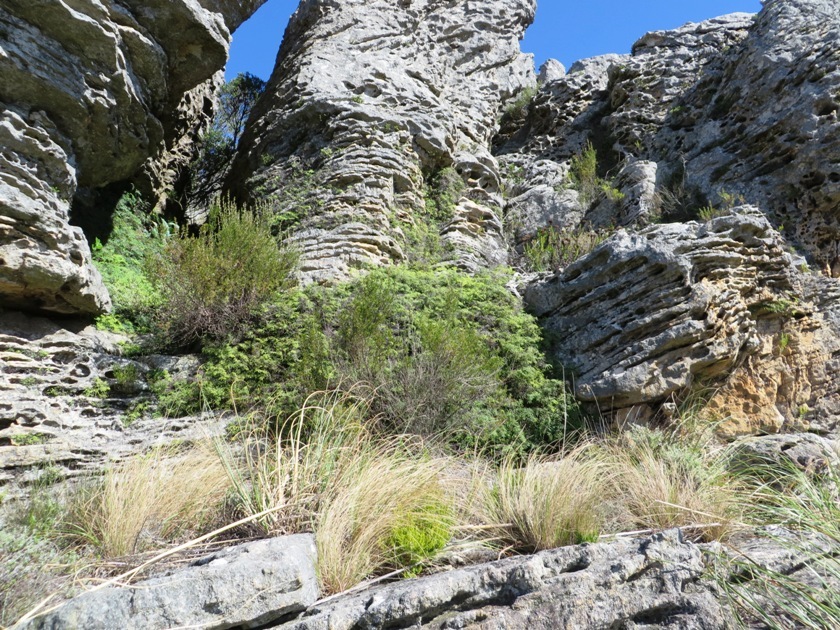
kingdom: Plantae
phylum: Tracheophyta
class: Polypodiopsida
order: Gleicheniales
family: Gleicheniaceae
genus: Gleichenia
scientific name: Gleichenia polypodioides
